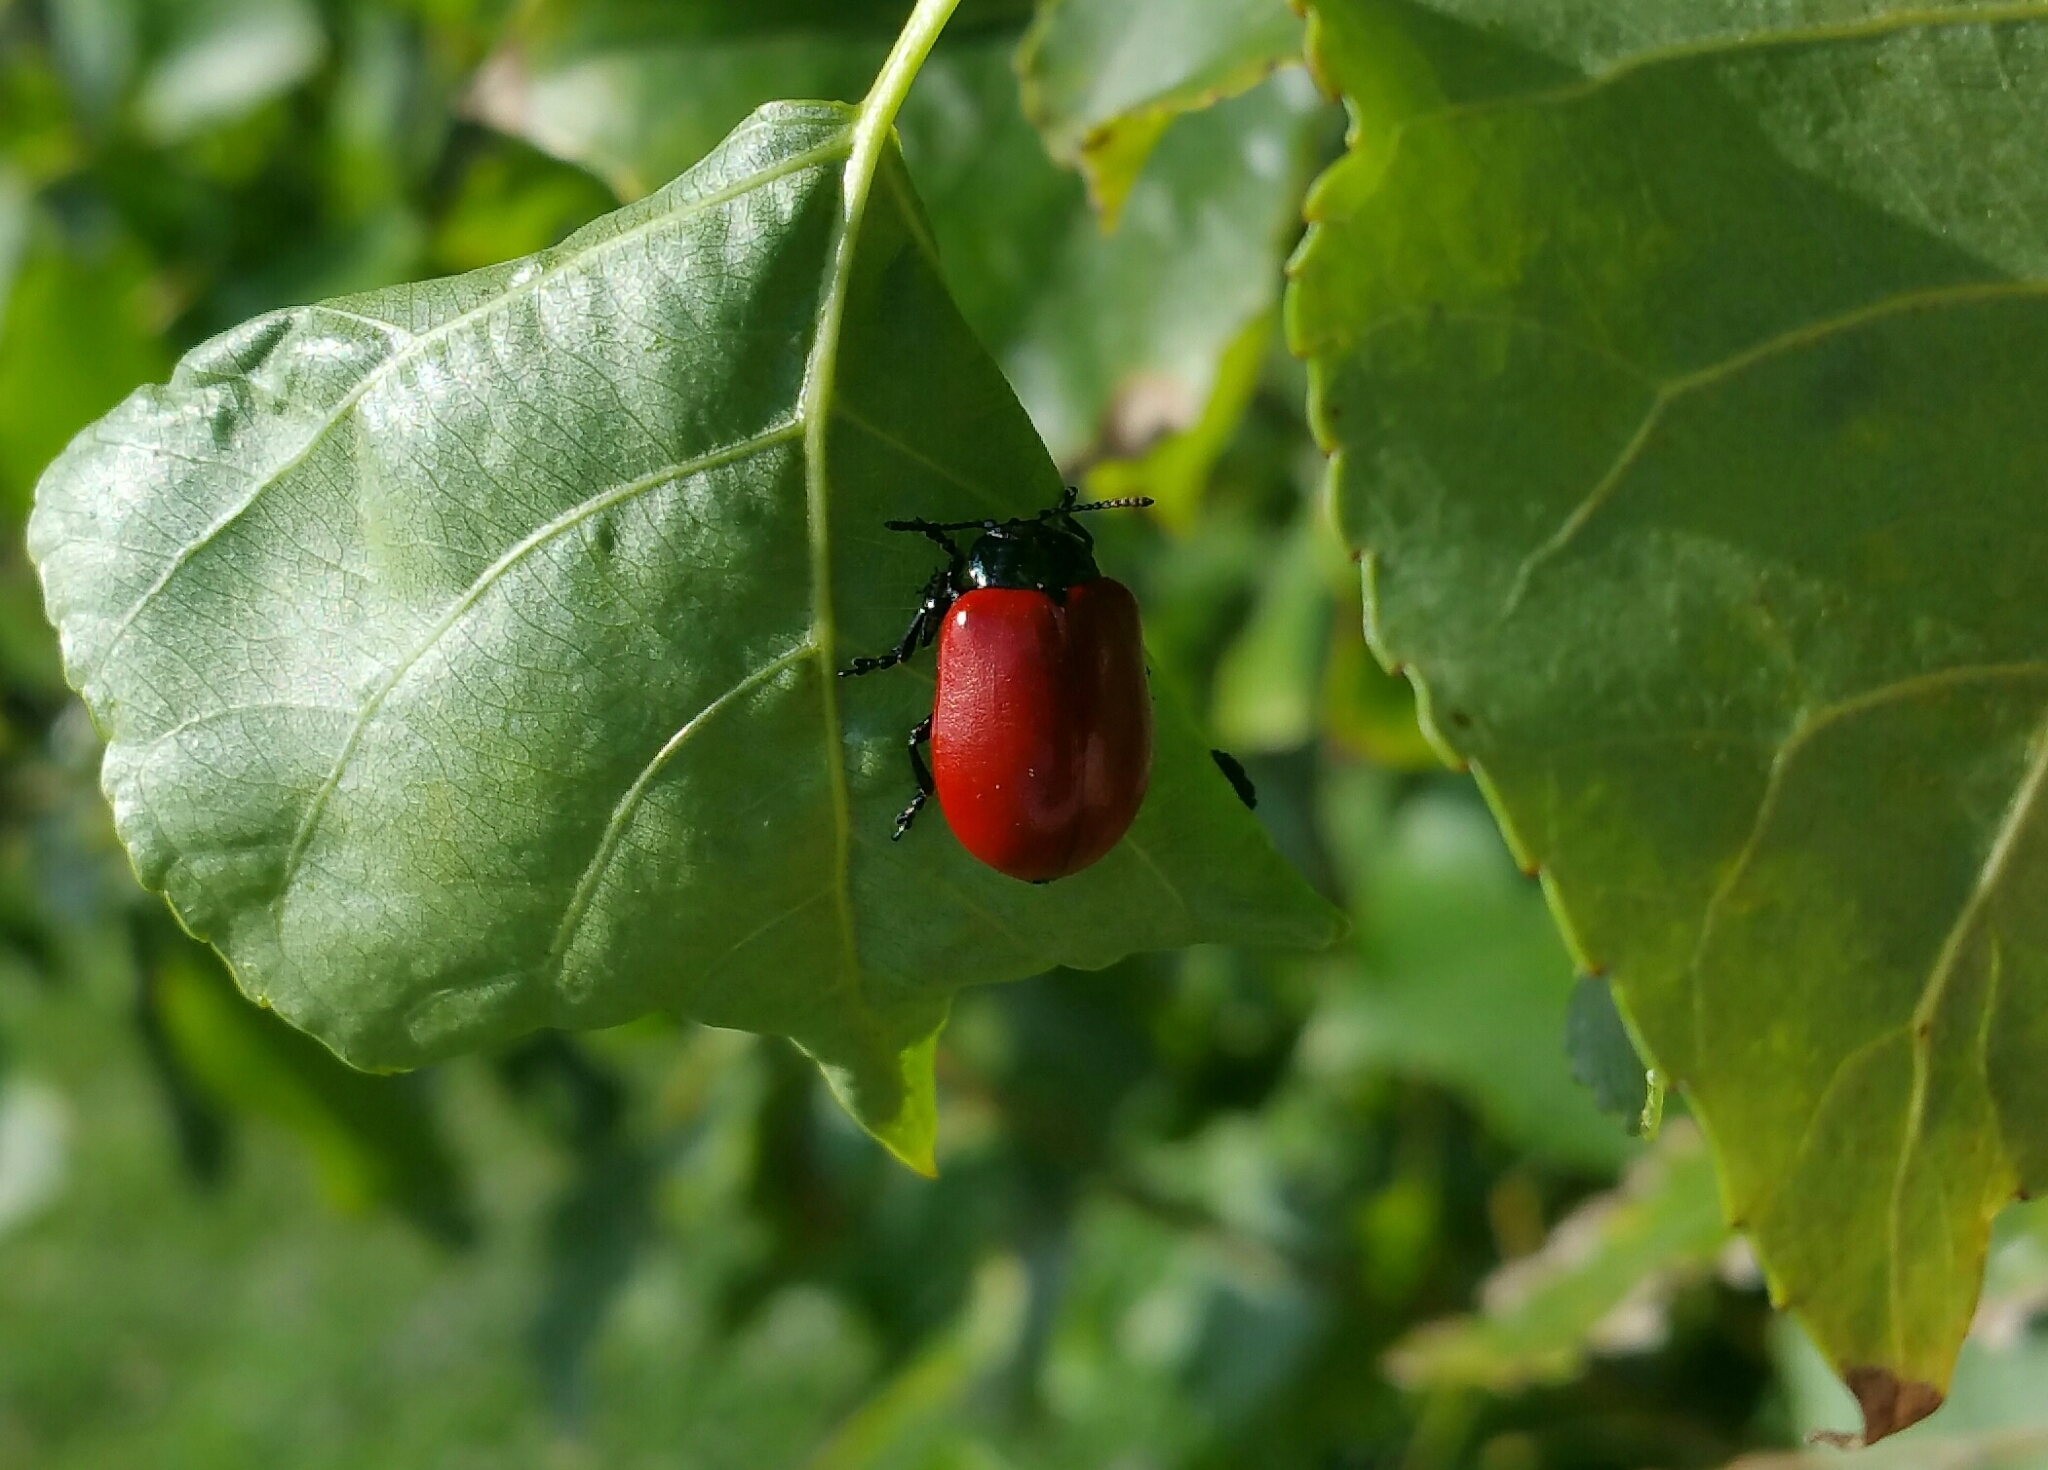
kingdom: Animalia
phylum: Arthropoda
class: Insecta
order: Coleoptera
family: Chrysomelidae
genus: Chrysomela
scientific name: Chrysomela populi
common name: Red poplar leaf beetle
